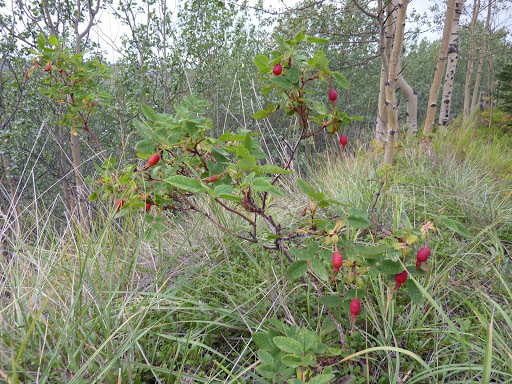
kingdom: Plantae
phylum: Tracheophyta
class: Magnoliopsida
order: Rosales
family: Rosaceae
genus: Rosa
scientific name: Rosa acicularis
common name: Prickly rose
